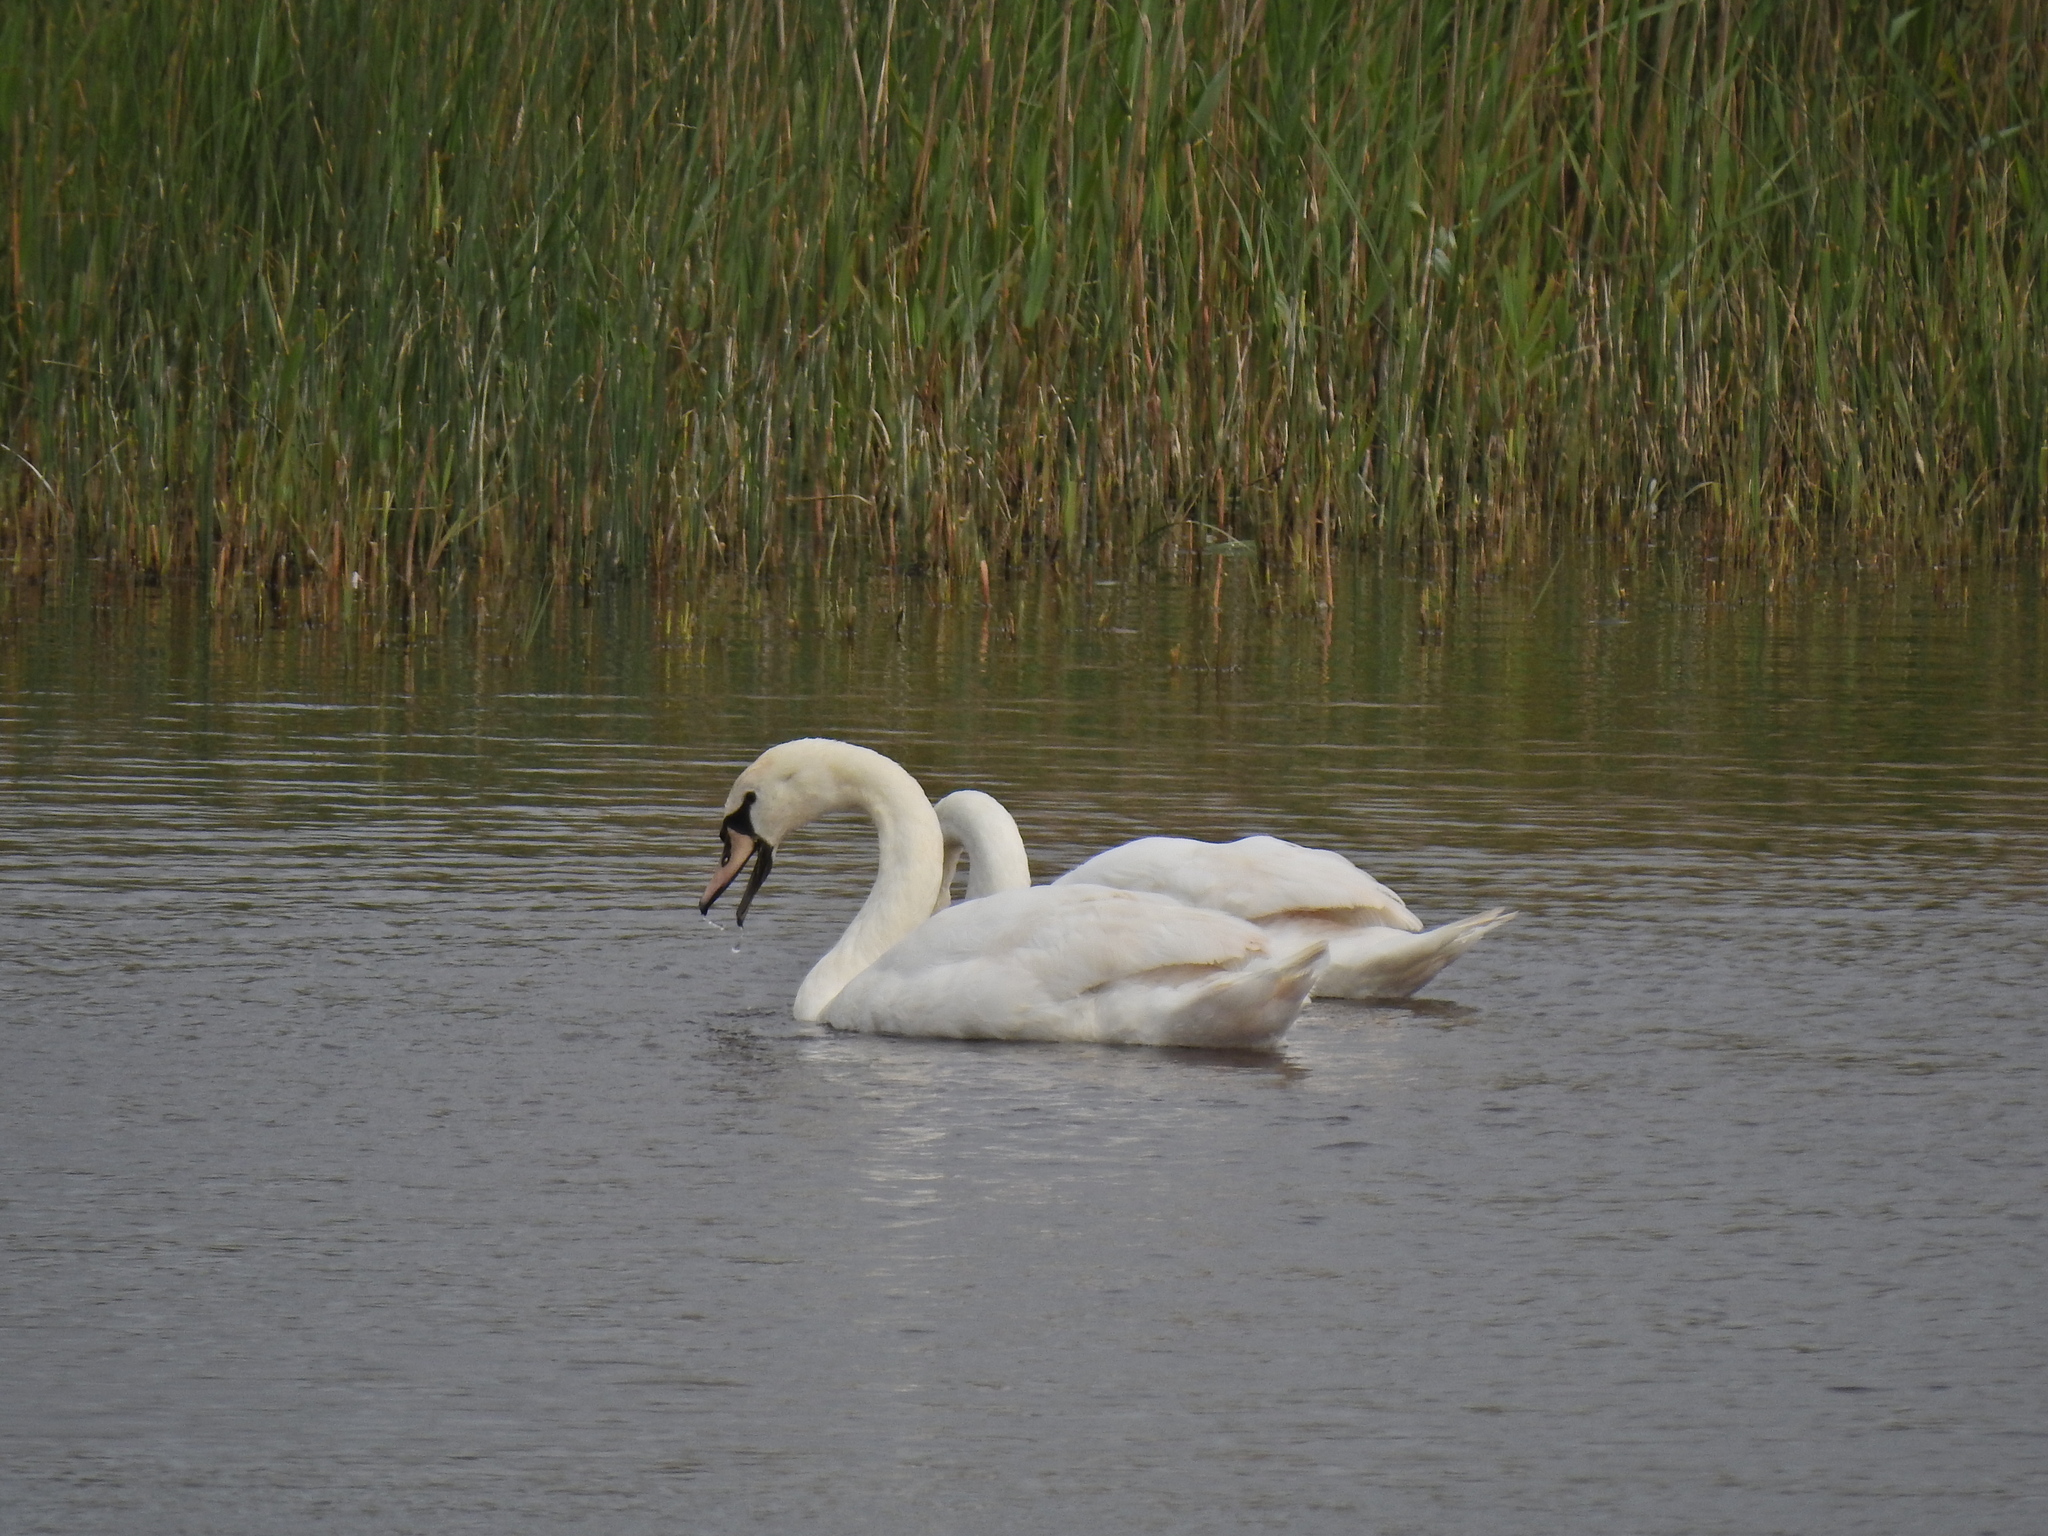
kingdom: Animalia
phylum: Chordata
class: Aves
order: Anseriformes
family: Anatidae
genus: Cygnus
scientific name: Cygnus olor
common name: Mute swan
